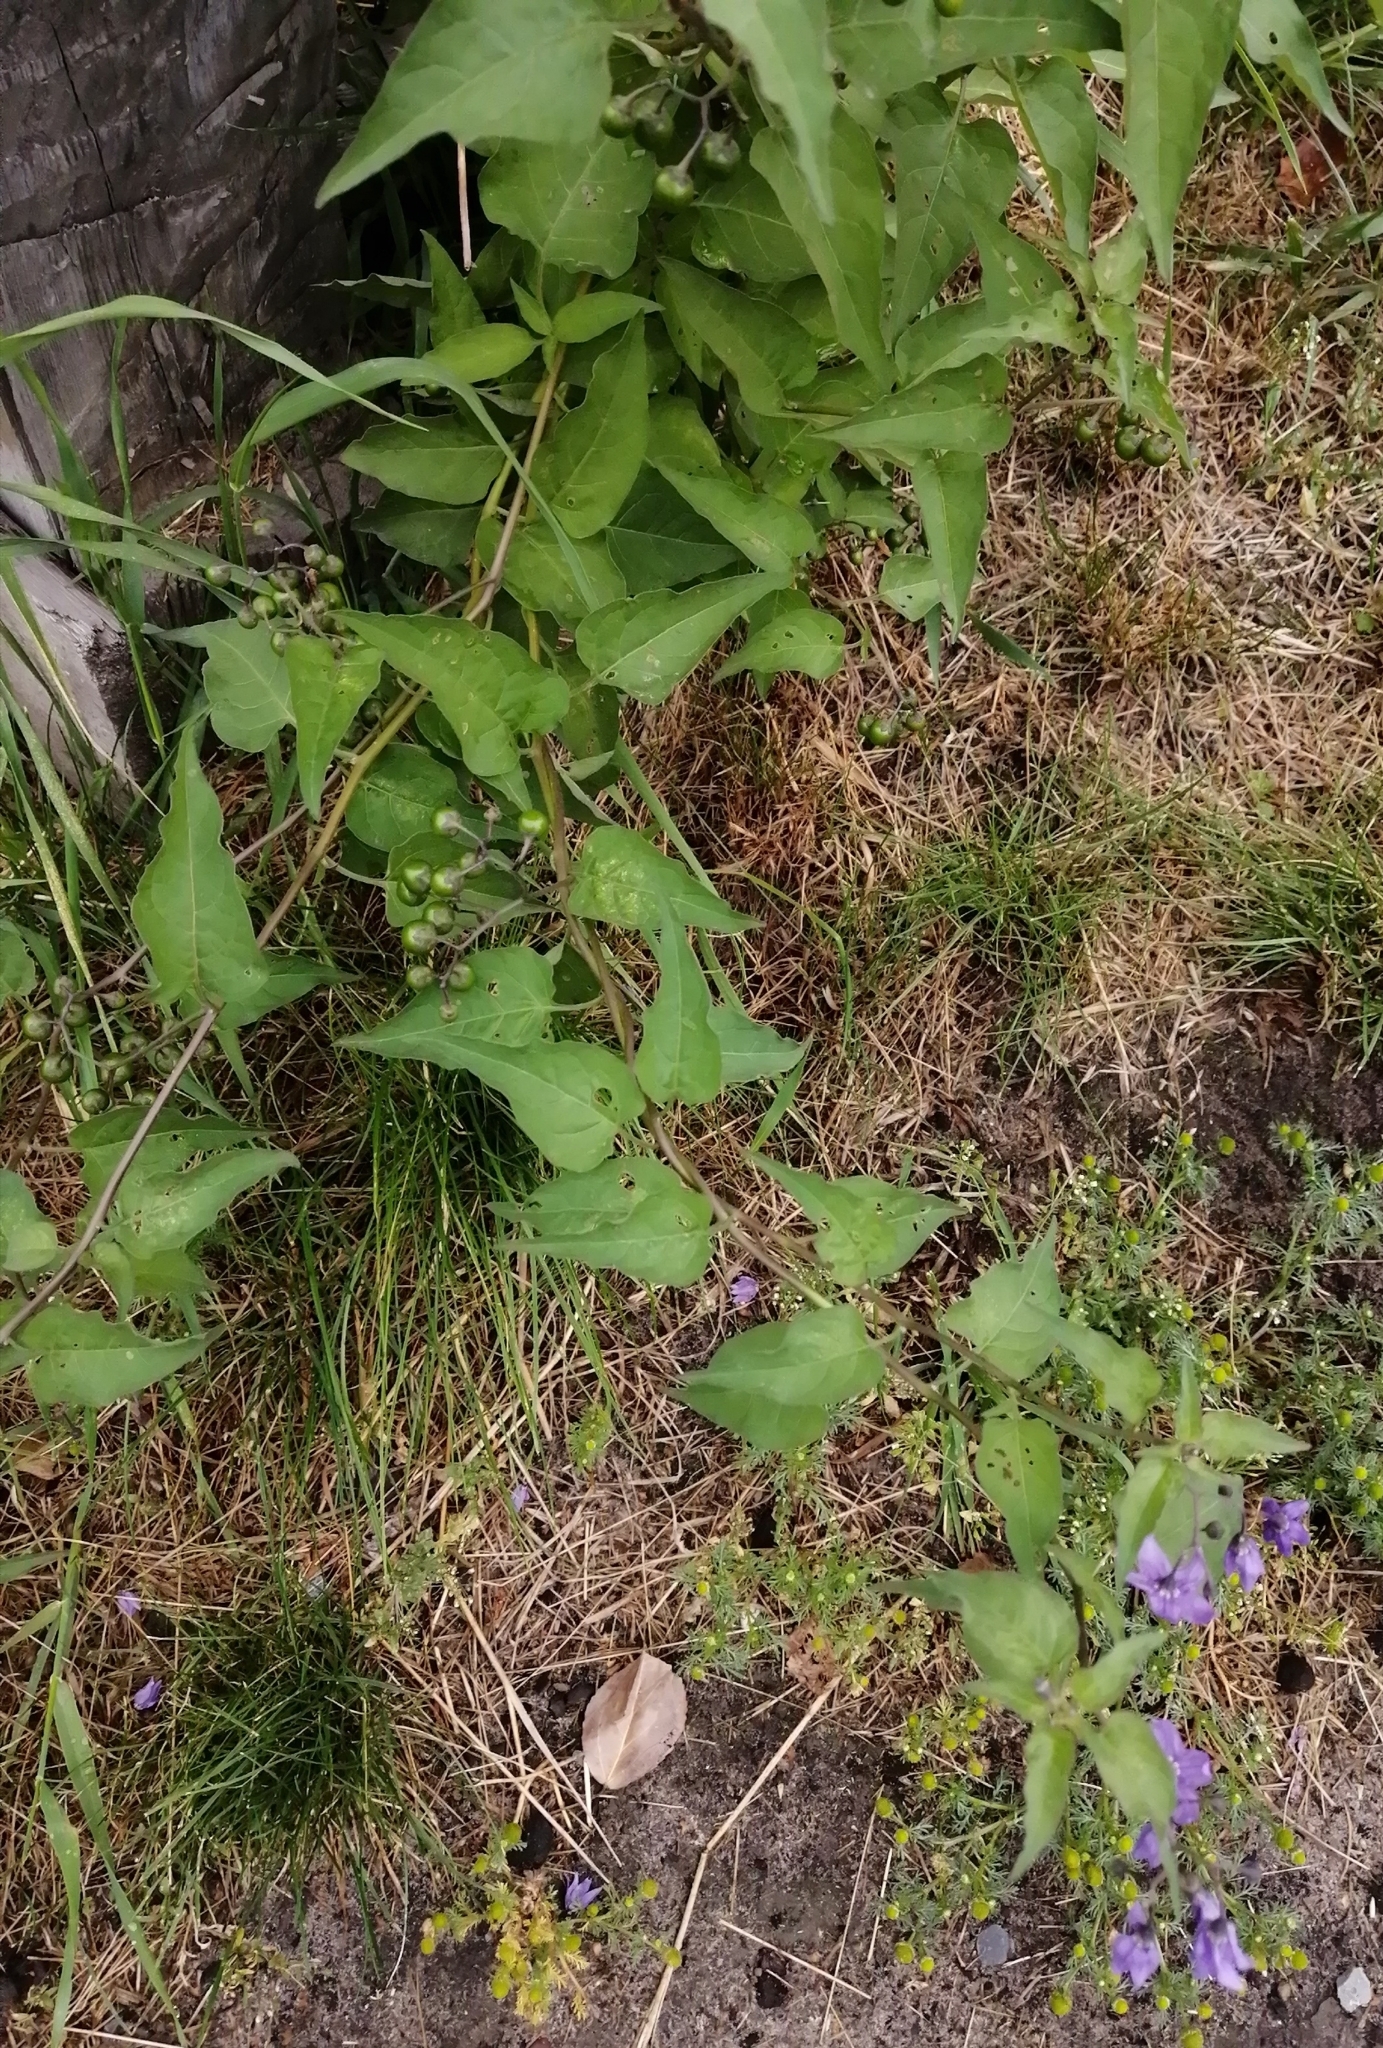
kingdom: Plantae
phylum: Tracheophyta
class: Magnoliopsida
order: Solanales
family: Solanaceae
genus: Solanum
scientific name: Solanum dulcamara
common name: Climbing nightshade
